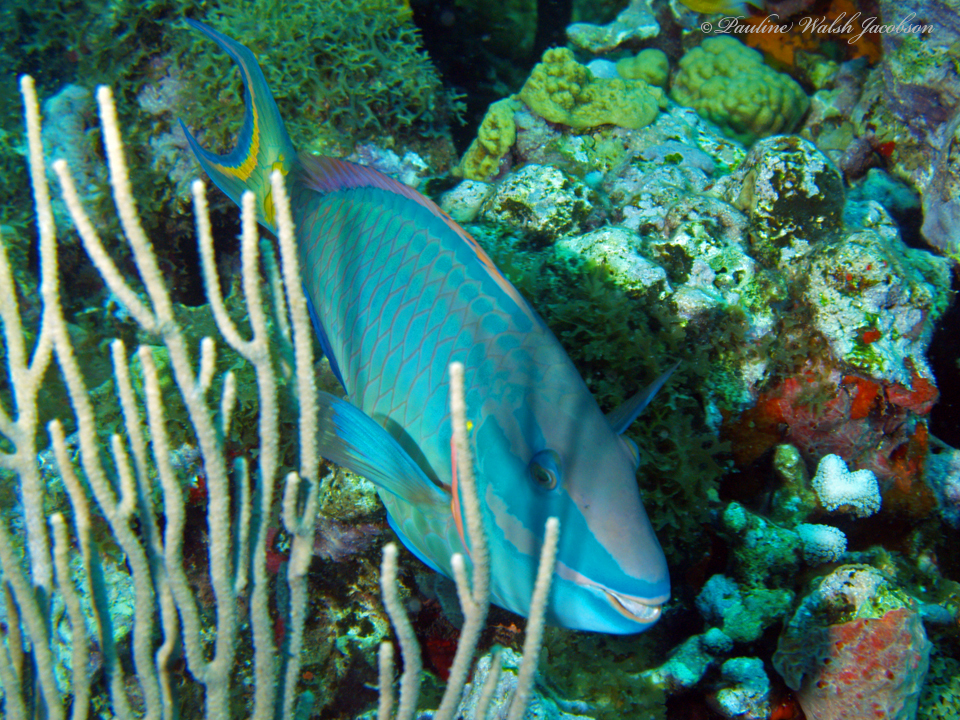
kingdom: Animalia
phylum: Chordata
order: Perciformes
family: Scaridae
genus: Sparisoma
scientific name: Sparisoma viride
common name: Stoplight parrotfish
